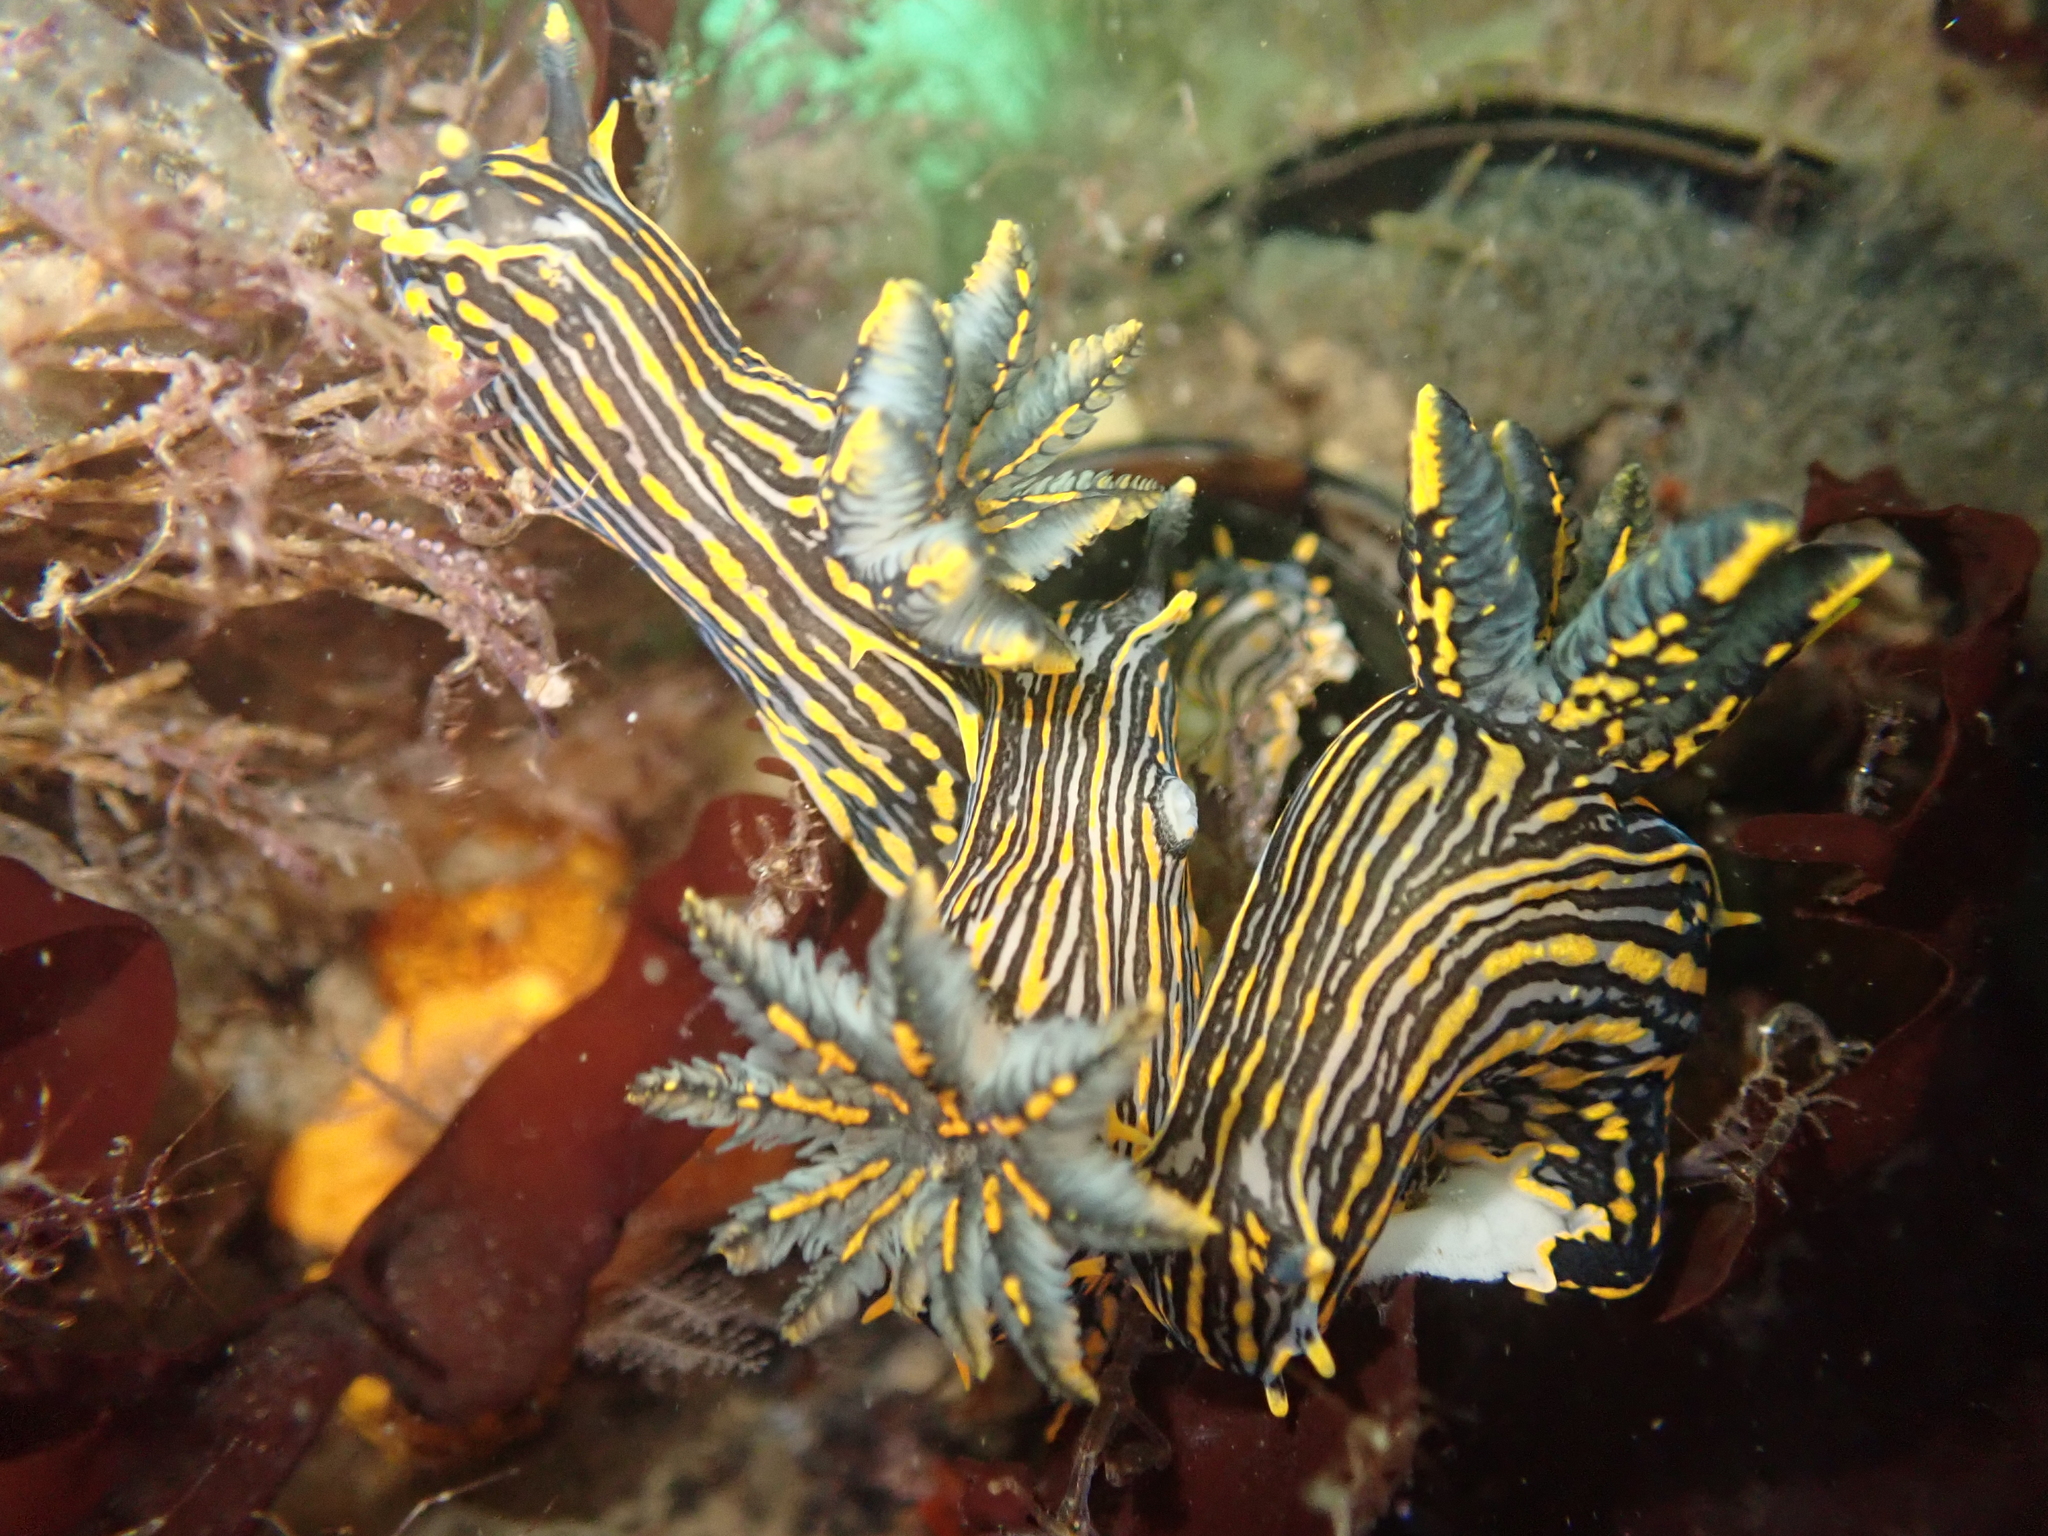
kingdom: Animalia
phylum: Mollusca
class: Gastropoda
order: Nudibranchia
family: Polyceridae
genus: Polycera
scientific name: Polycera atra
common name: Orange-spike polycera
